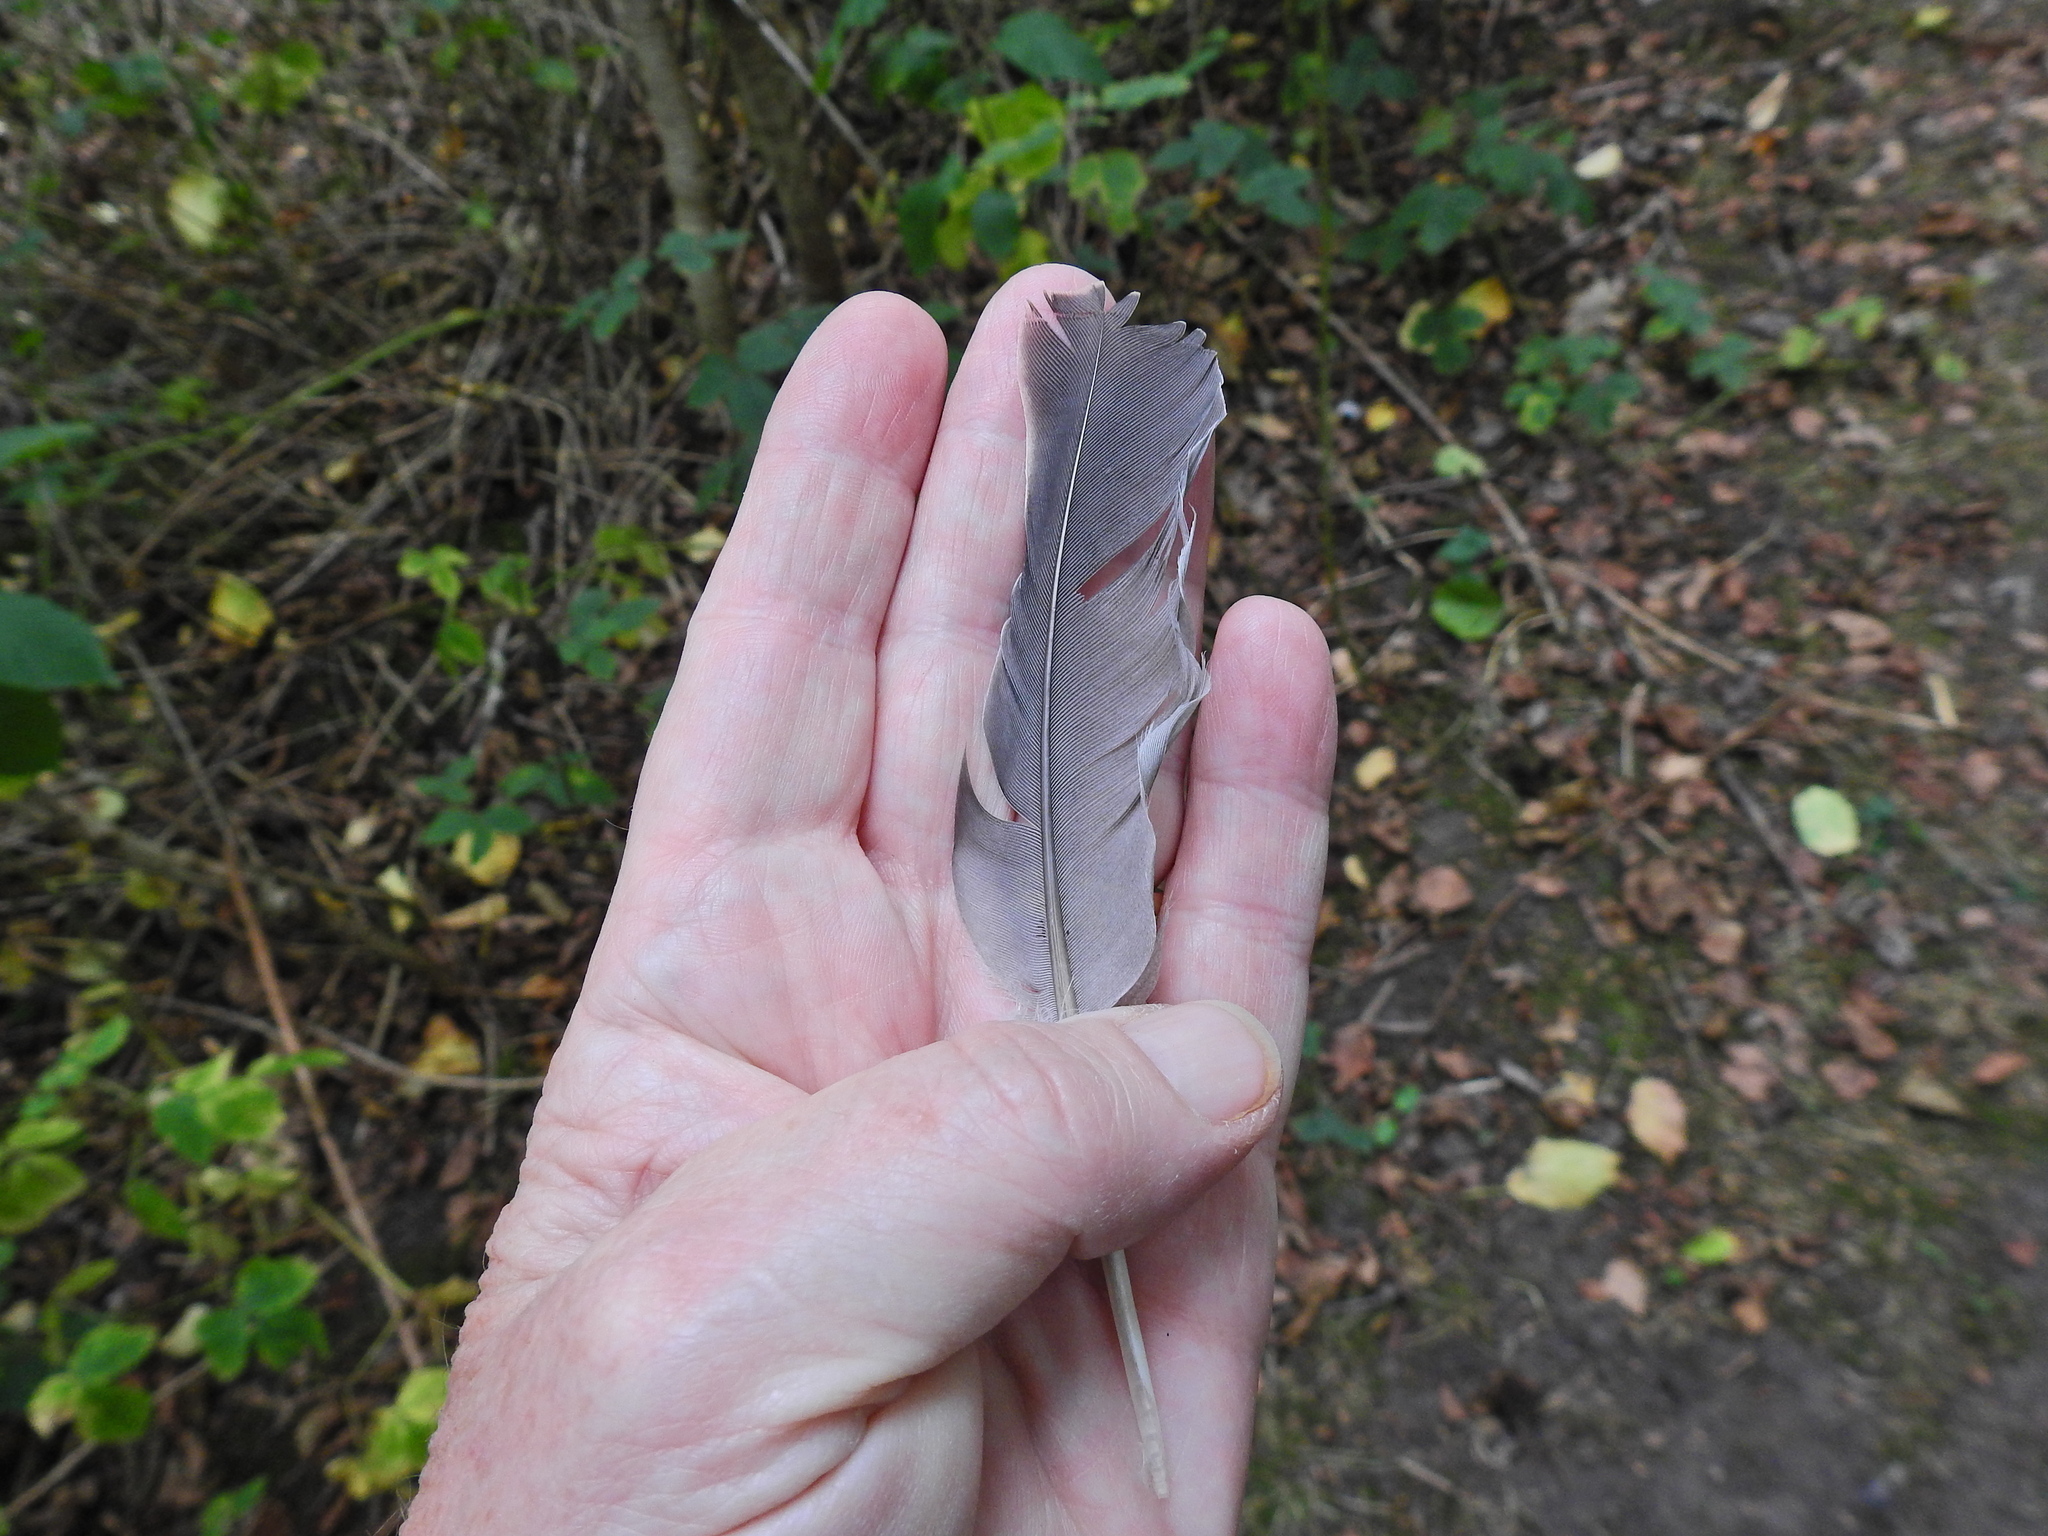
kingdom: Animalia
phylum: Chordata
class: Aves
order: Columbiformes
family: Columbidae
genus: Columba
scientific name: Columba palumbus
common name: Common wood pigeon
